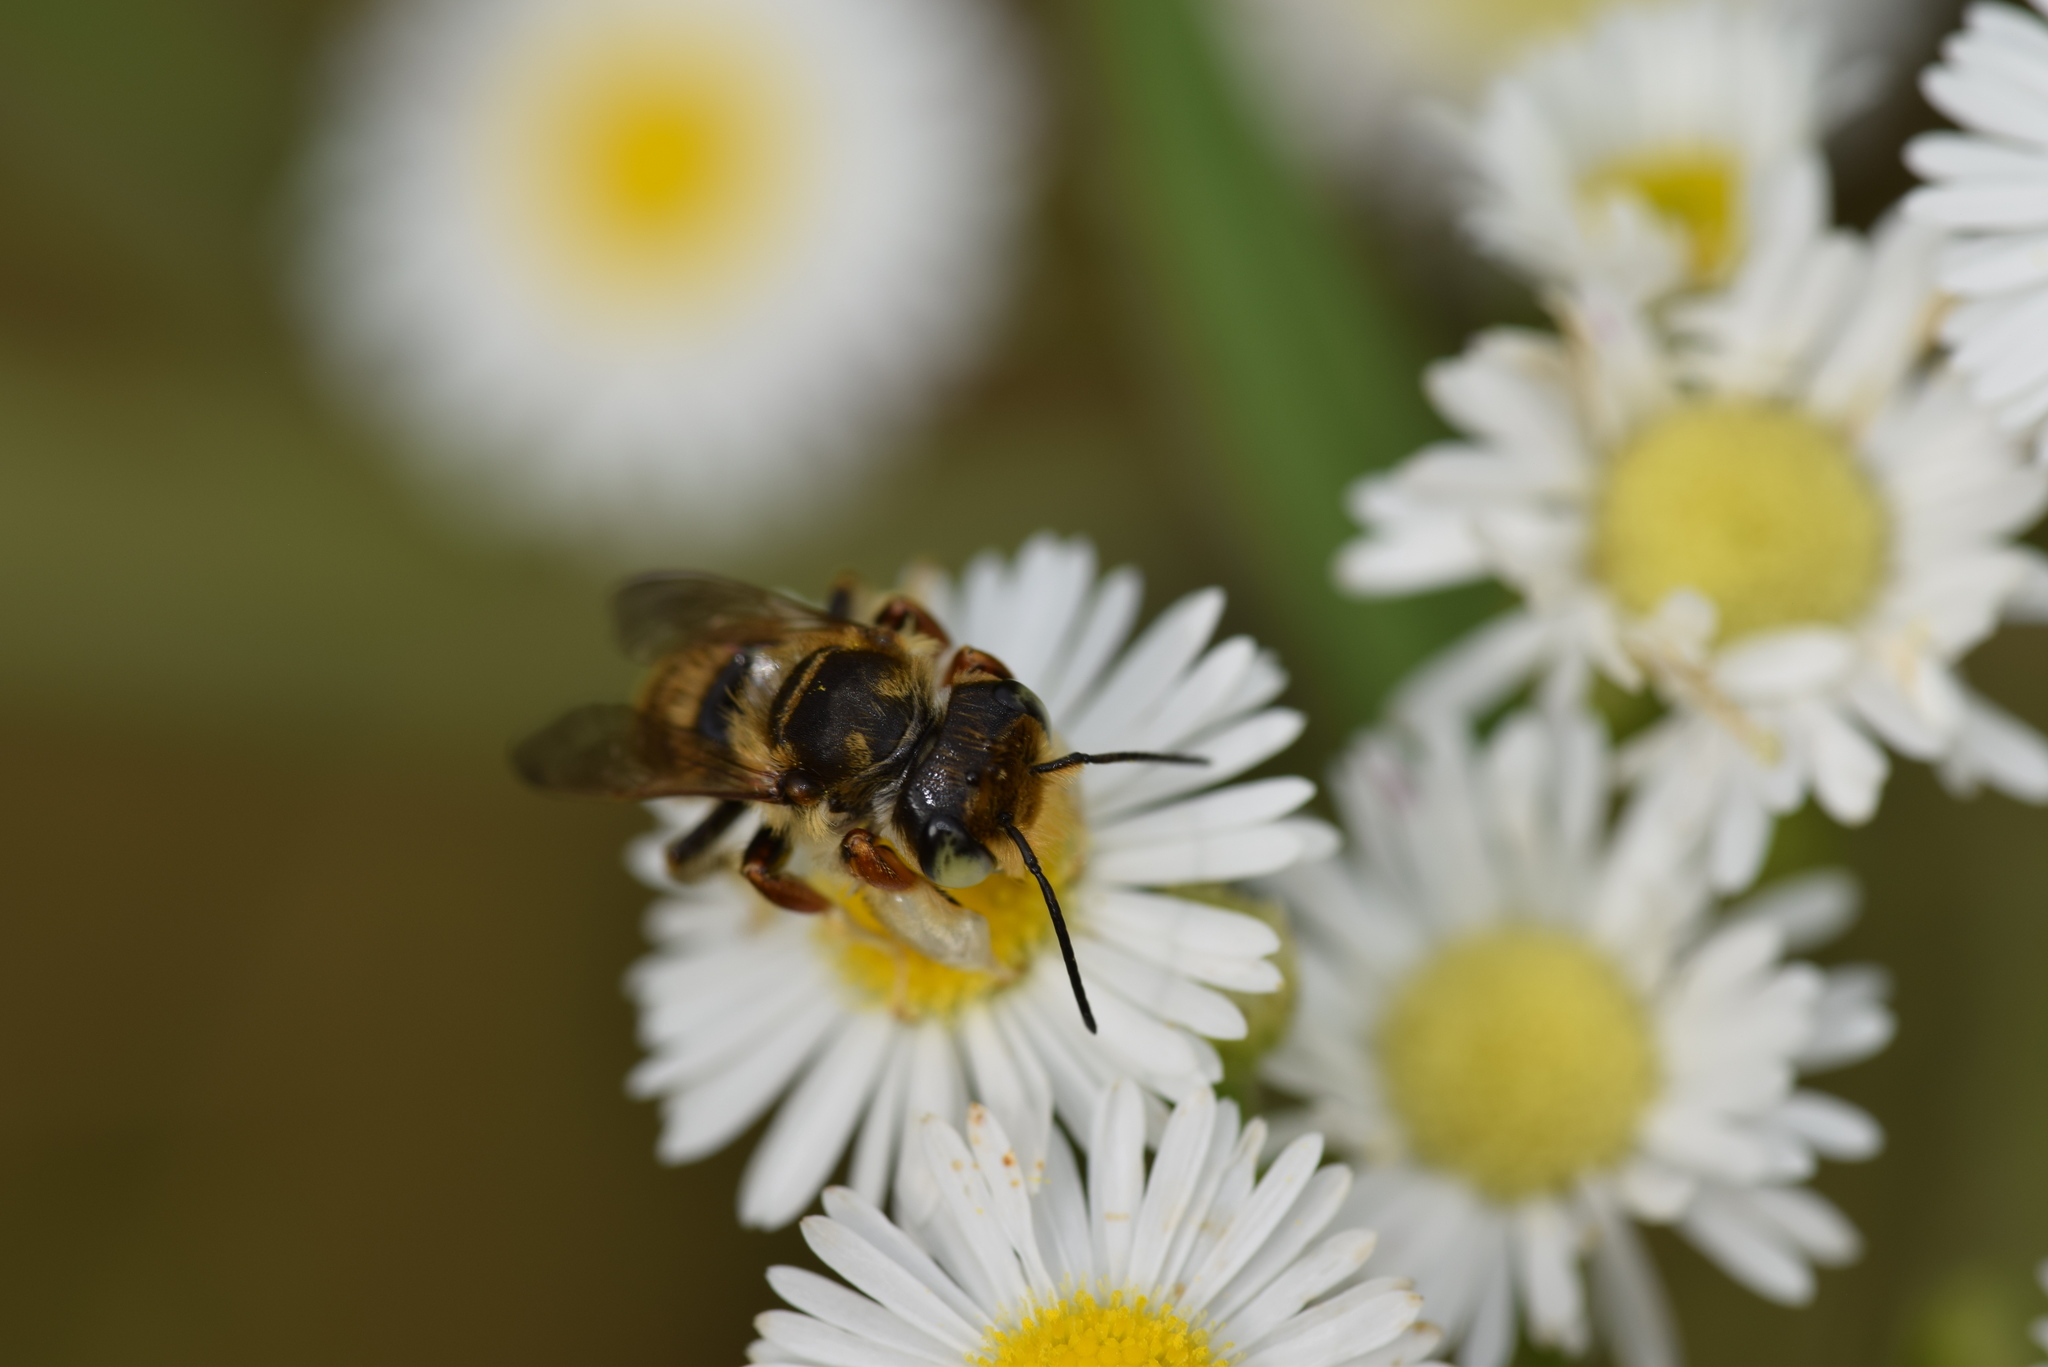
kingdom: Animalia
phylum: Arthropoda
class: Insecta
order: Hymenoptera
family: Megachilidae
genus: Megachile
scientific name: Megachile albitarsis
